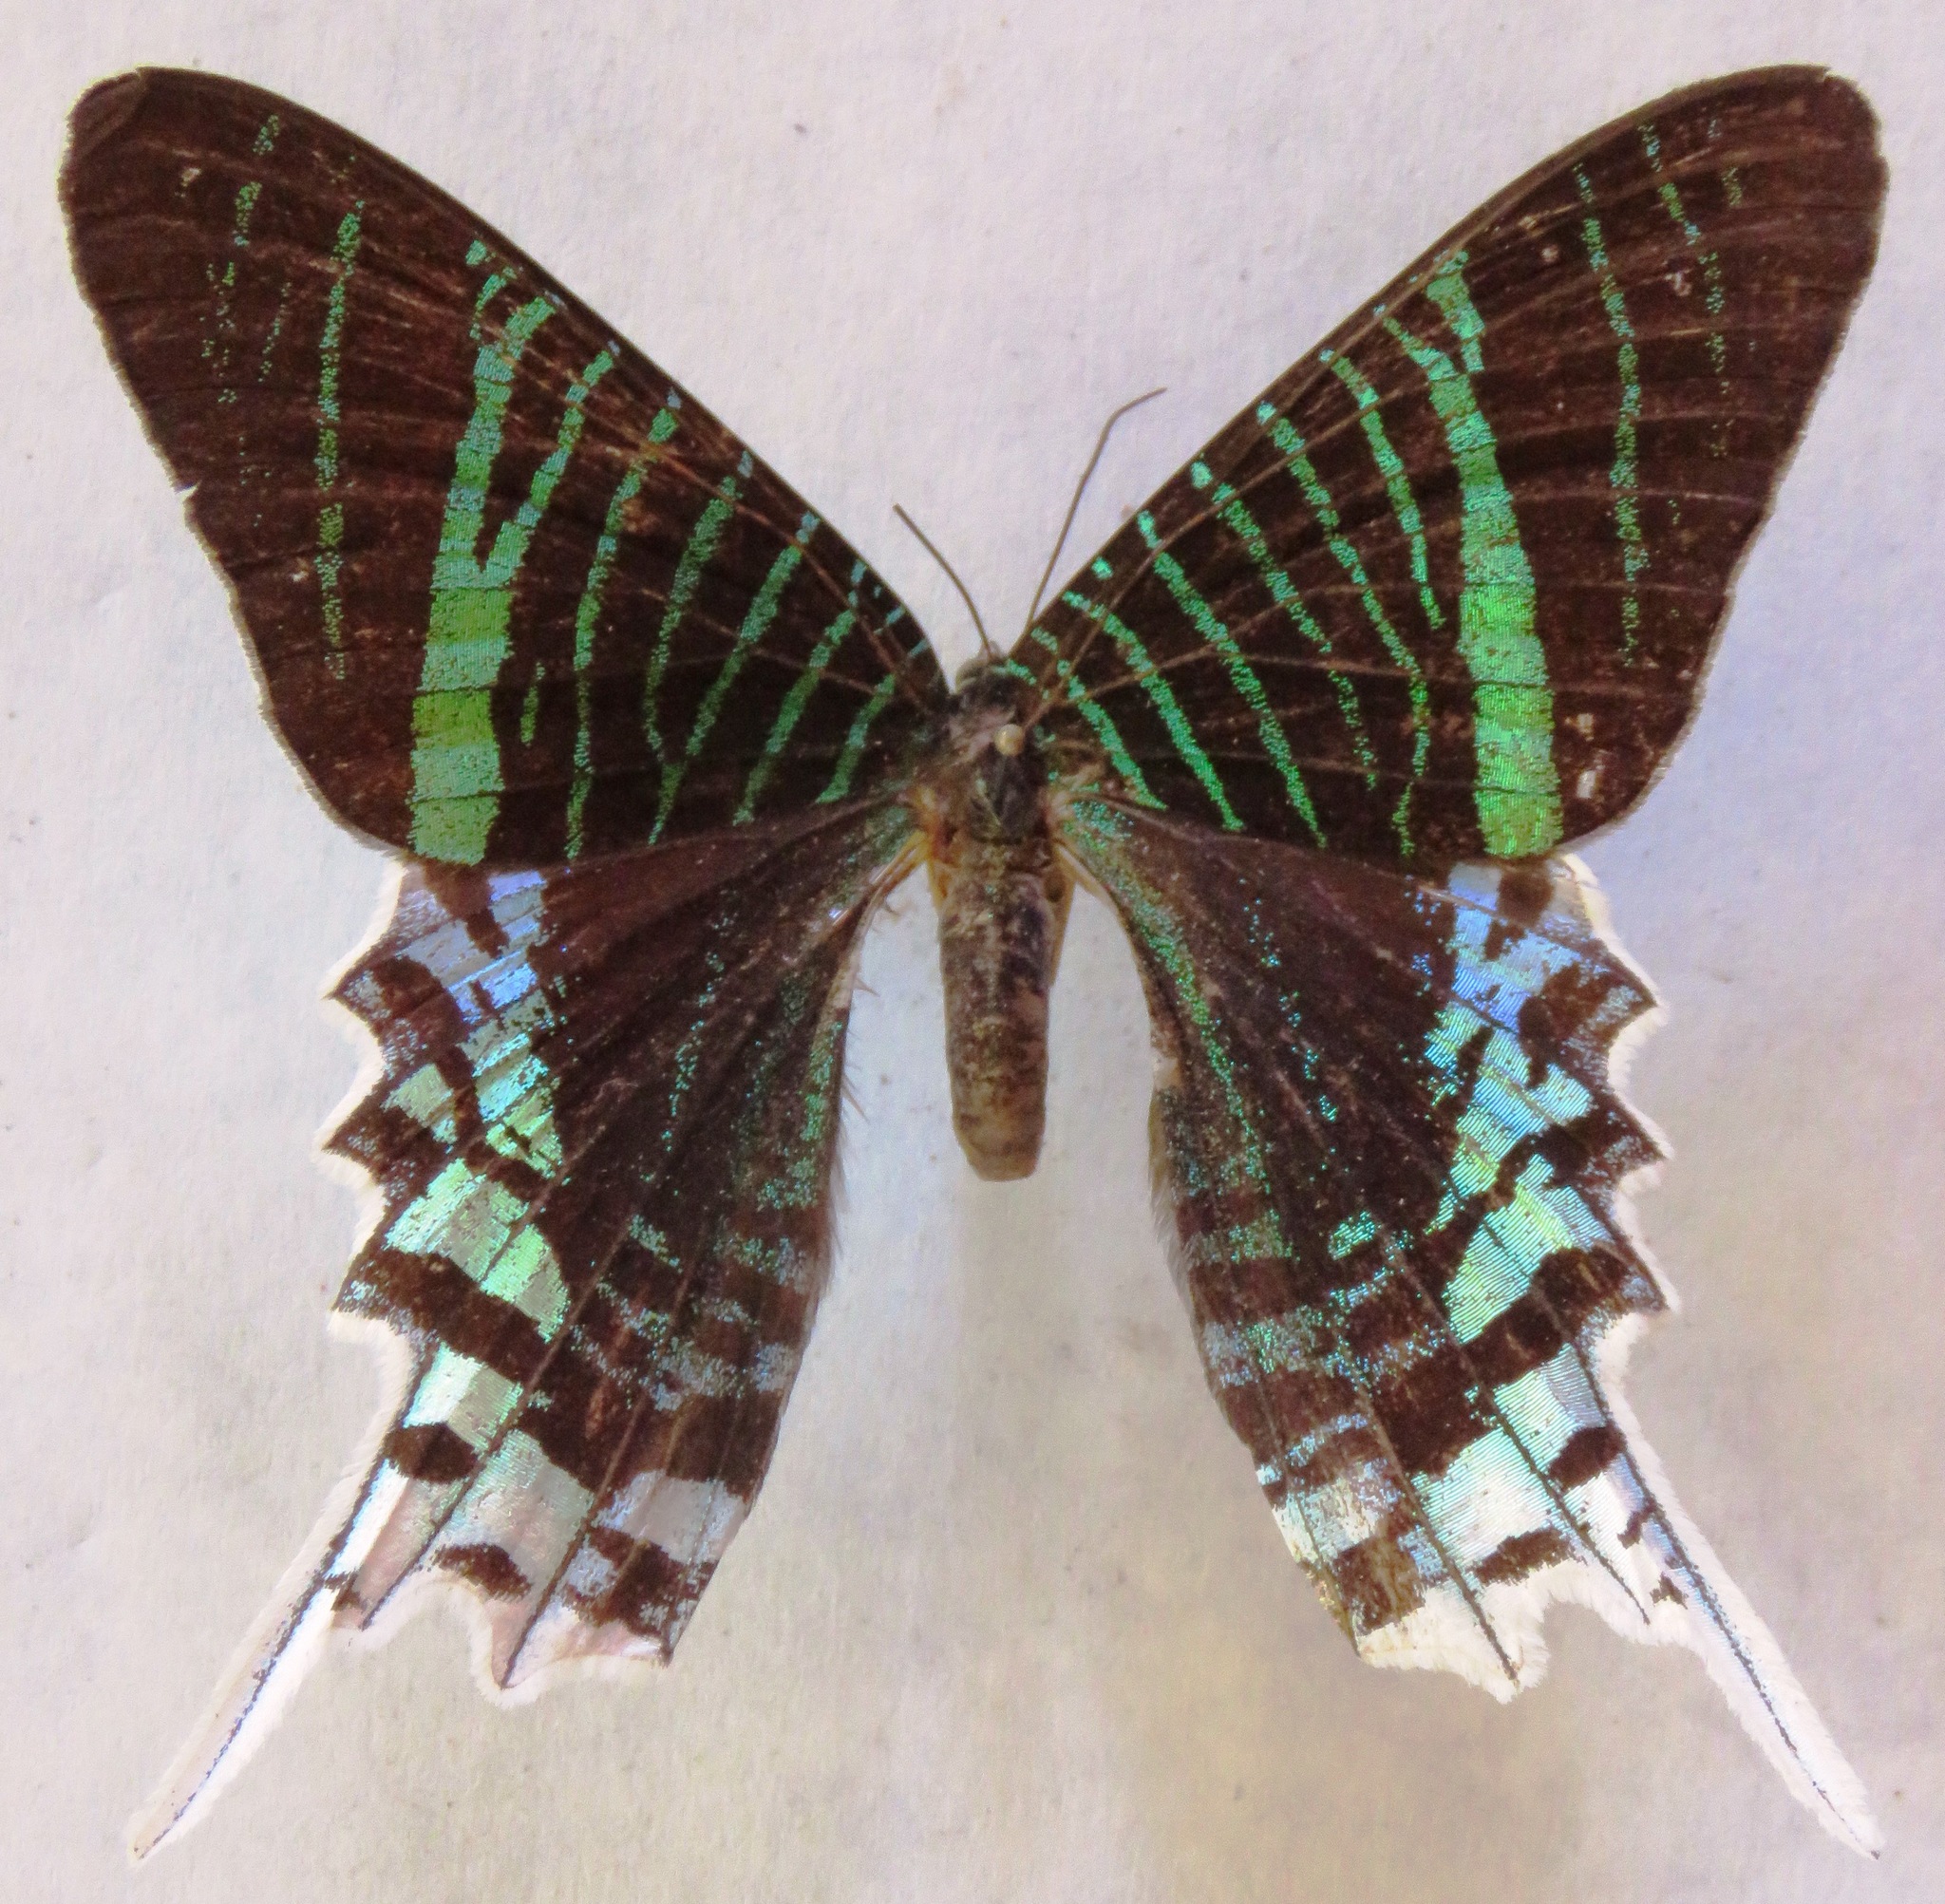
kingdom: Animalia
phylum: Arthropoda
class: Insecta
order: Lepidoptera
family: Uraniidae
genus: Urania
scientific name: Urania leilus
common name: Peacock moth
